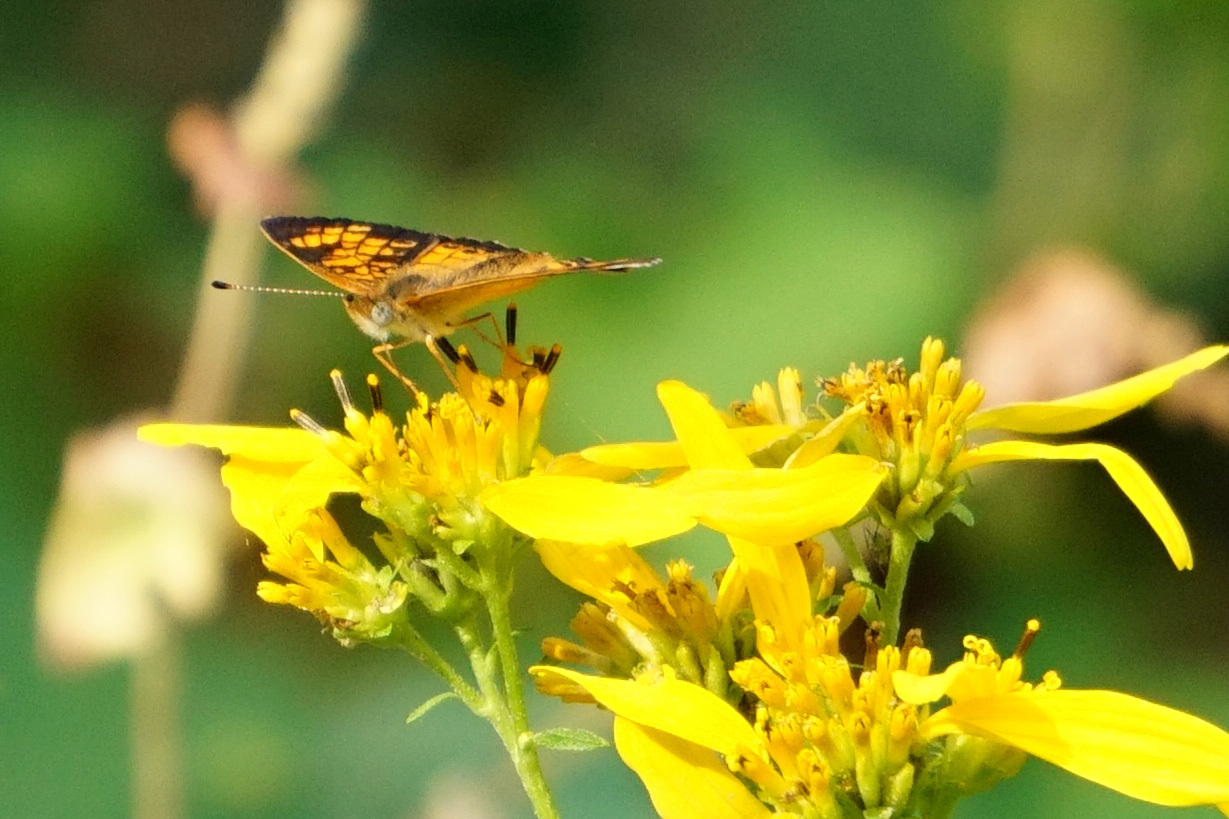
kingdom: Animalia
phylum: Arthropoda
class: Insecta
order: Lepidoptera
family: Nymphalidae
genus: Phyciodes
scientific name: Phyciodes tharos
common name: Pearl crescent
